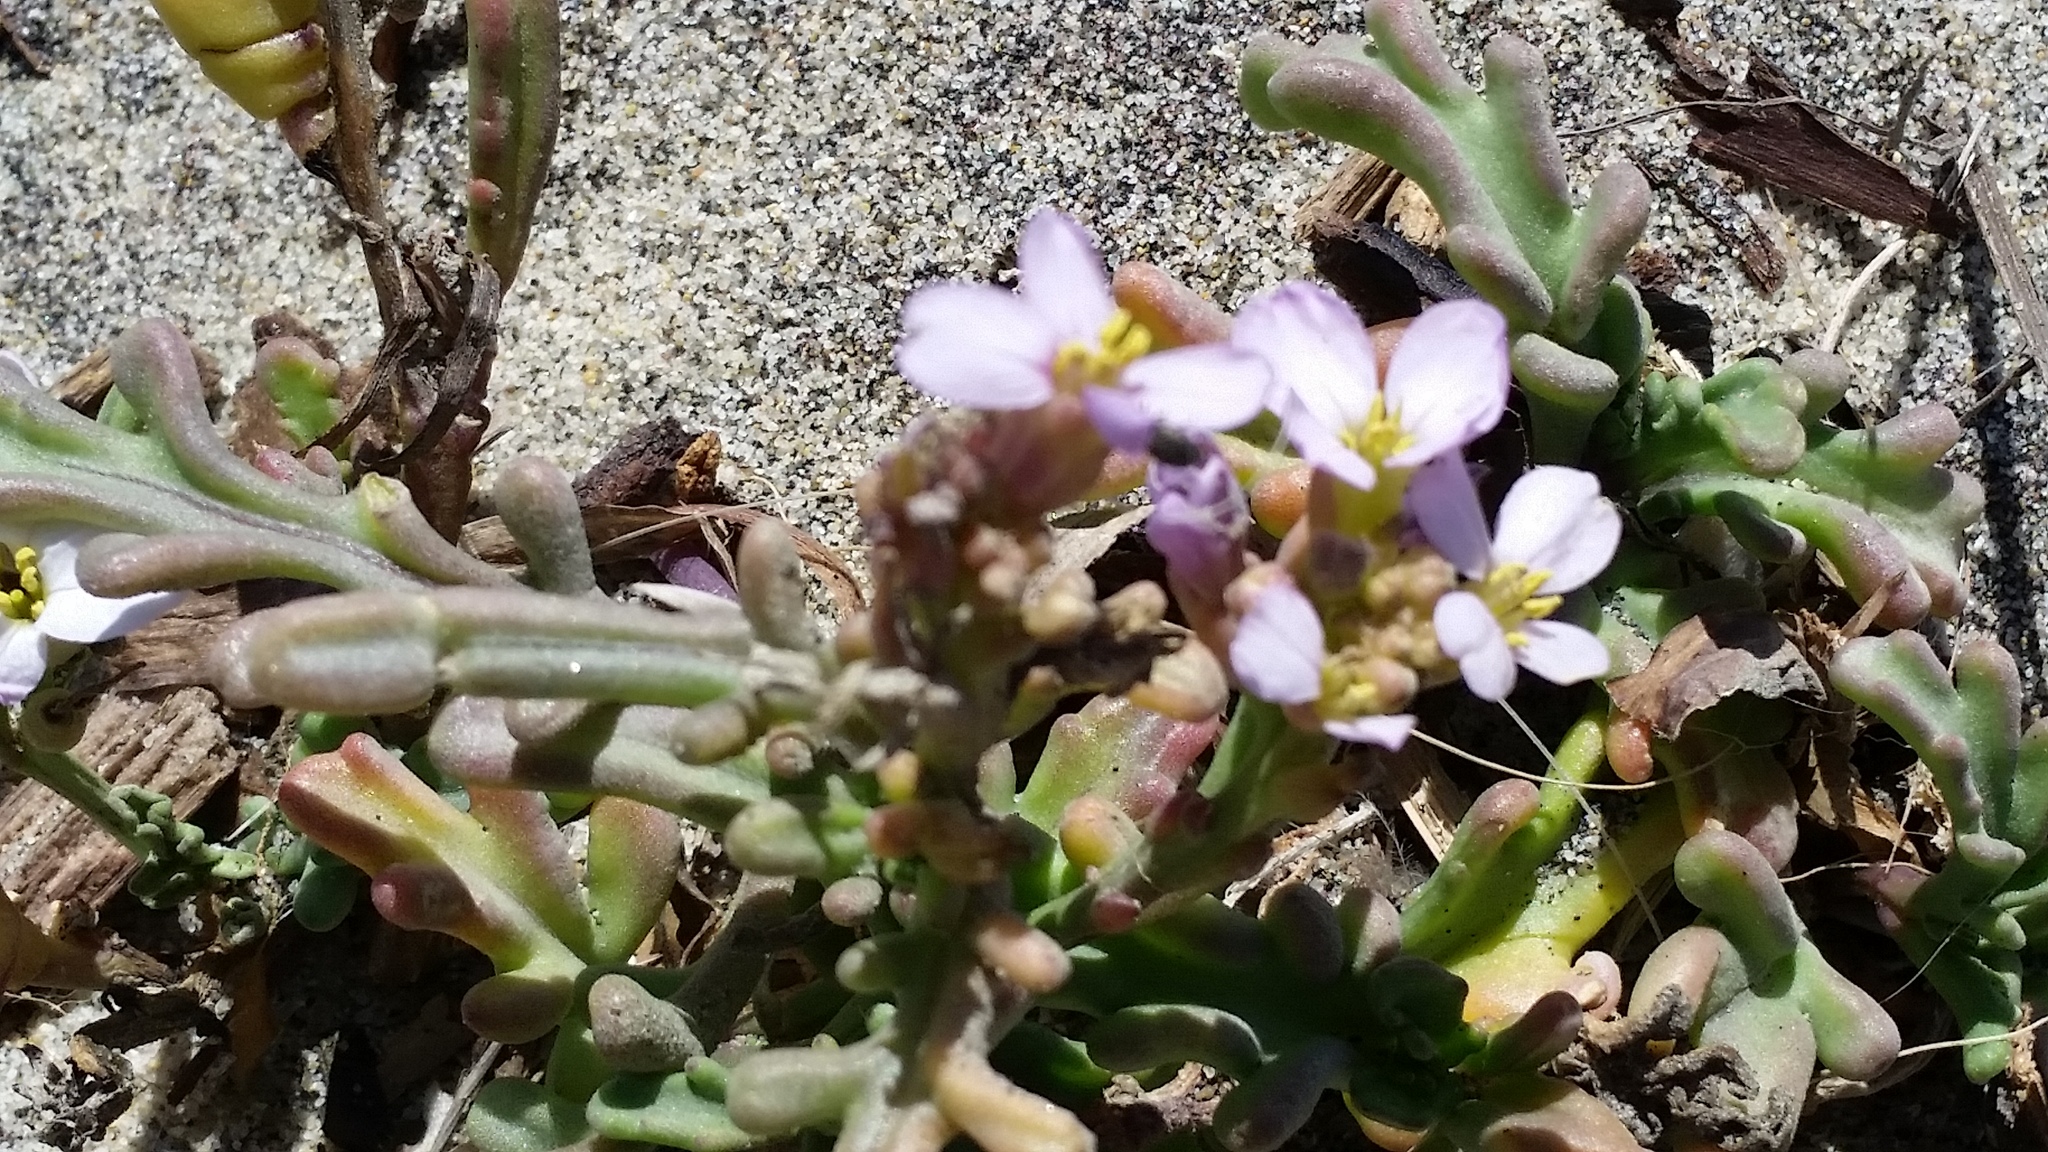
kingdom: Plantae
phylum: Tracheophyta
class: Magnoliopsida
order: Brassicales
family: Brassicaceae
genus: Cakile
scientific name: Cakile maritima
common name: Sea rocket
